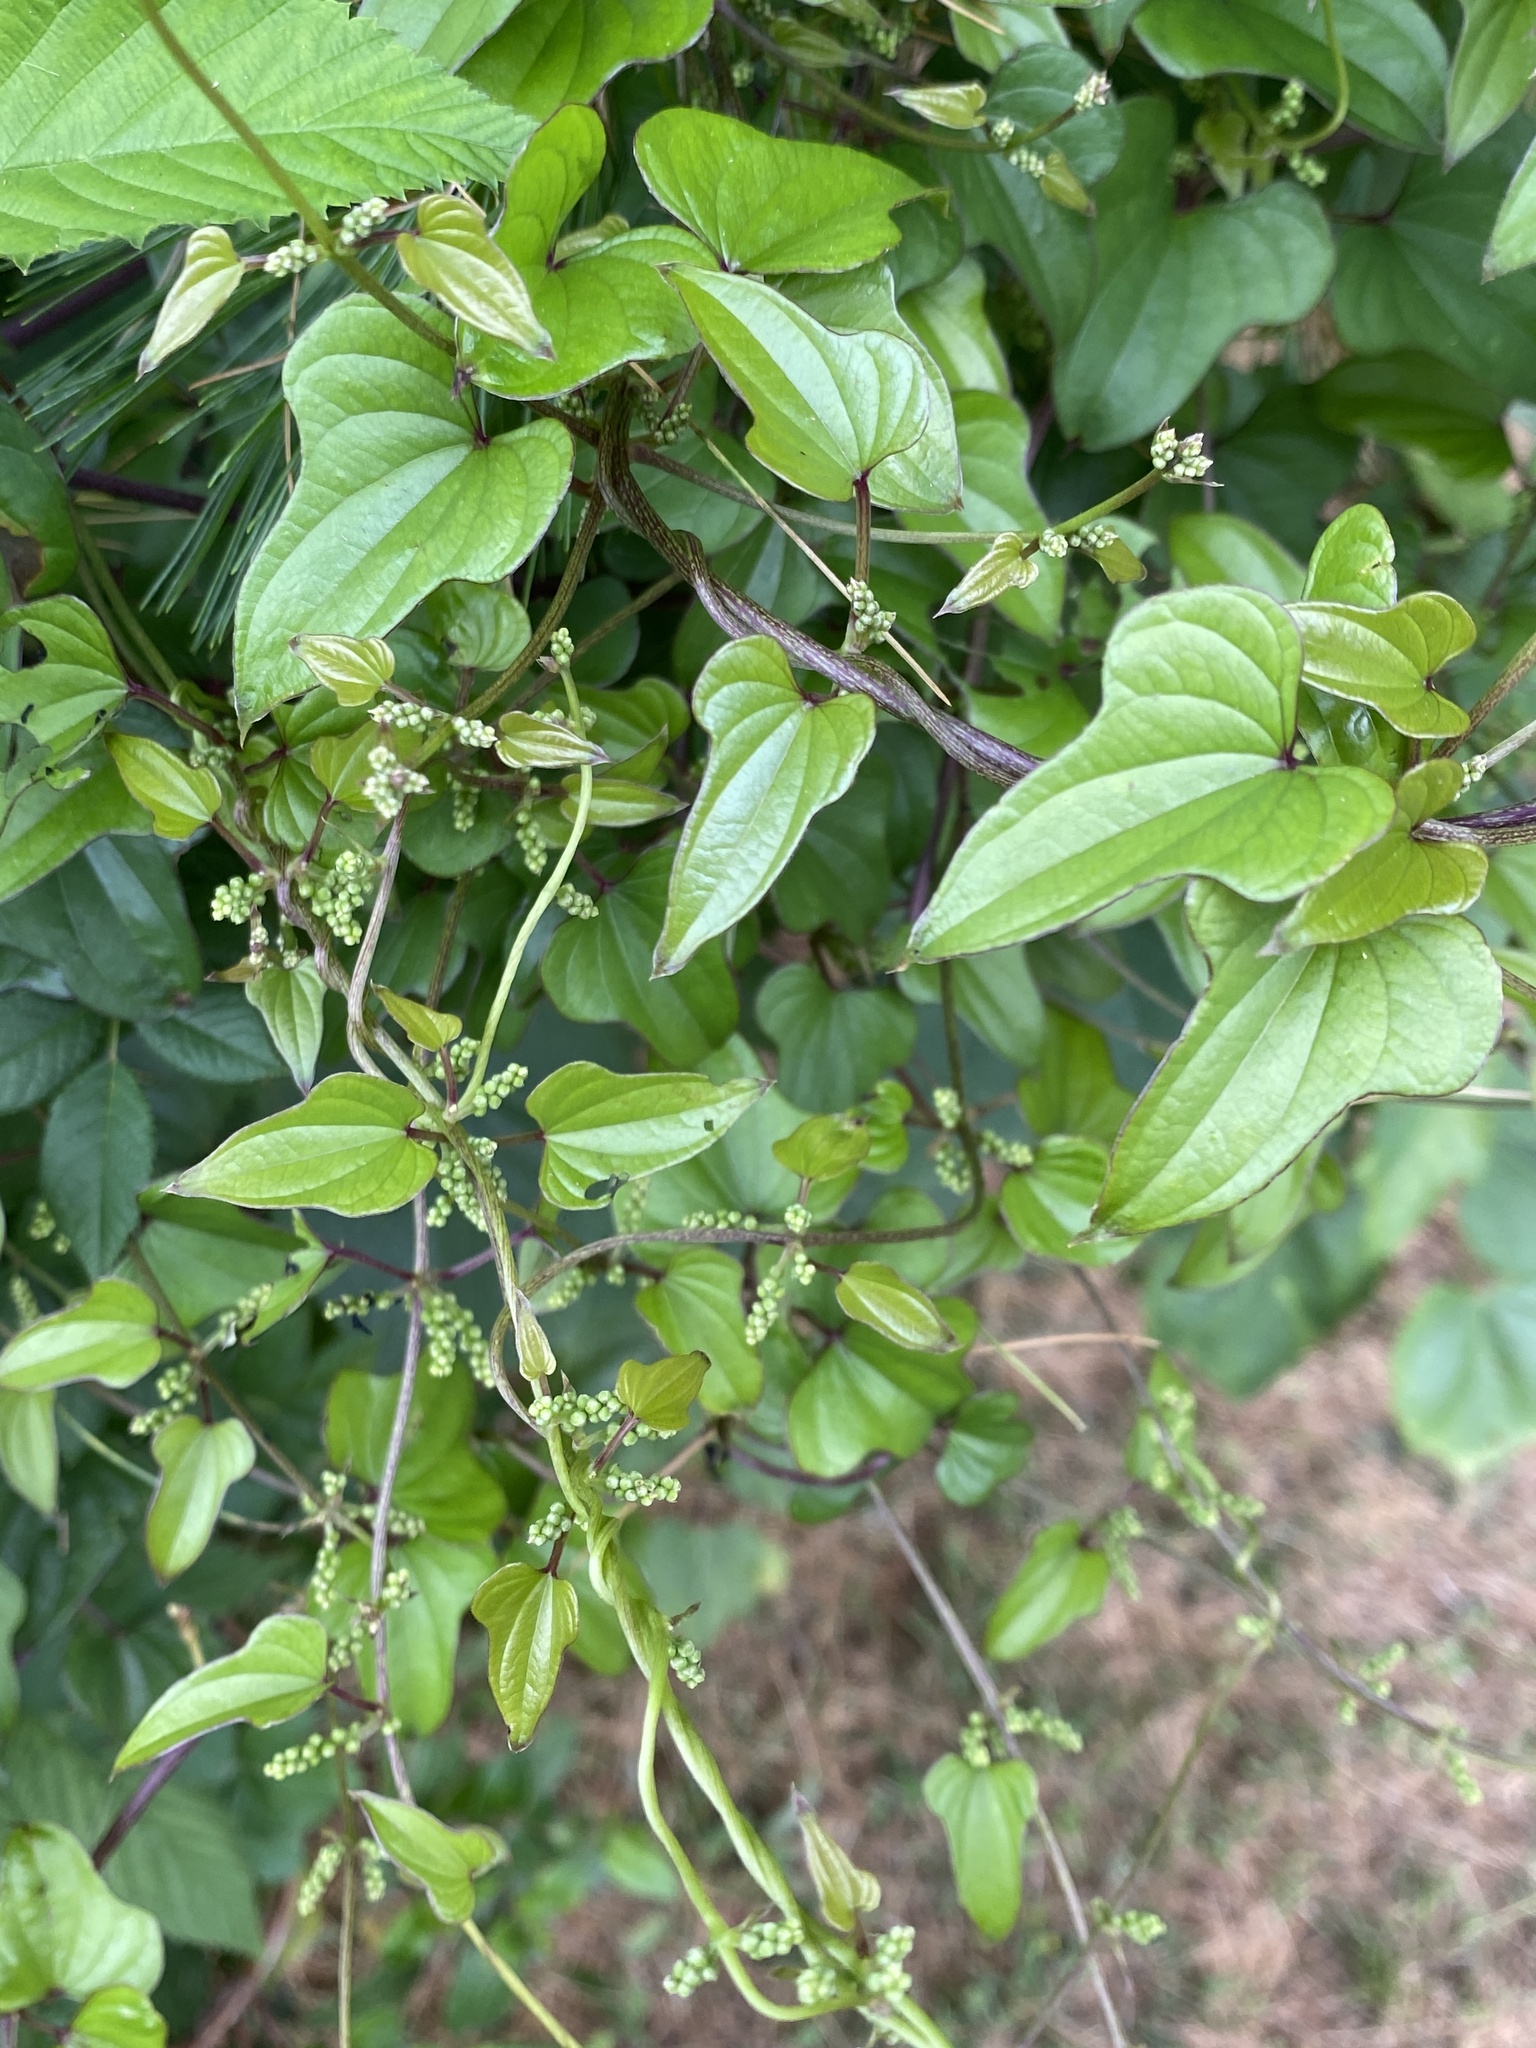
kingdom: Plantae
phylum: Tracheophyta
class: Liliopsida
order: Dioscoreales
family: Dioscoreaceae
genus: Dioscorea
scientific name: Dioscorea polystachya
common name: Chinese yam
